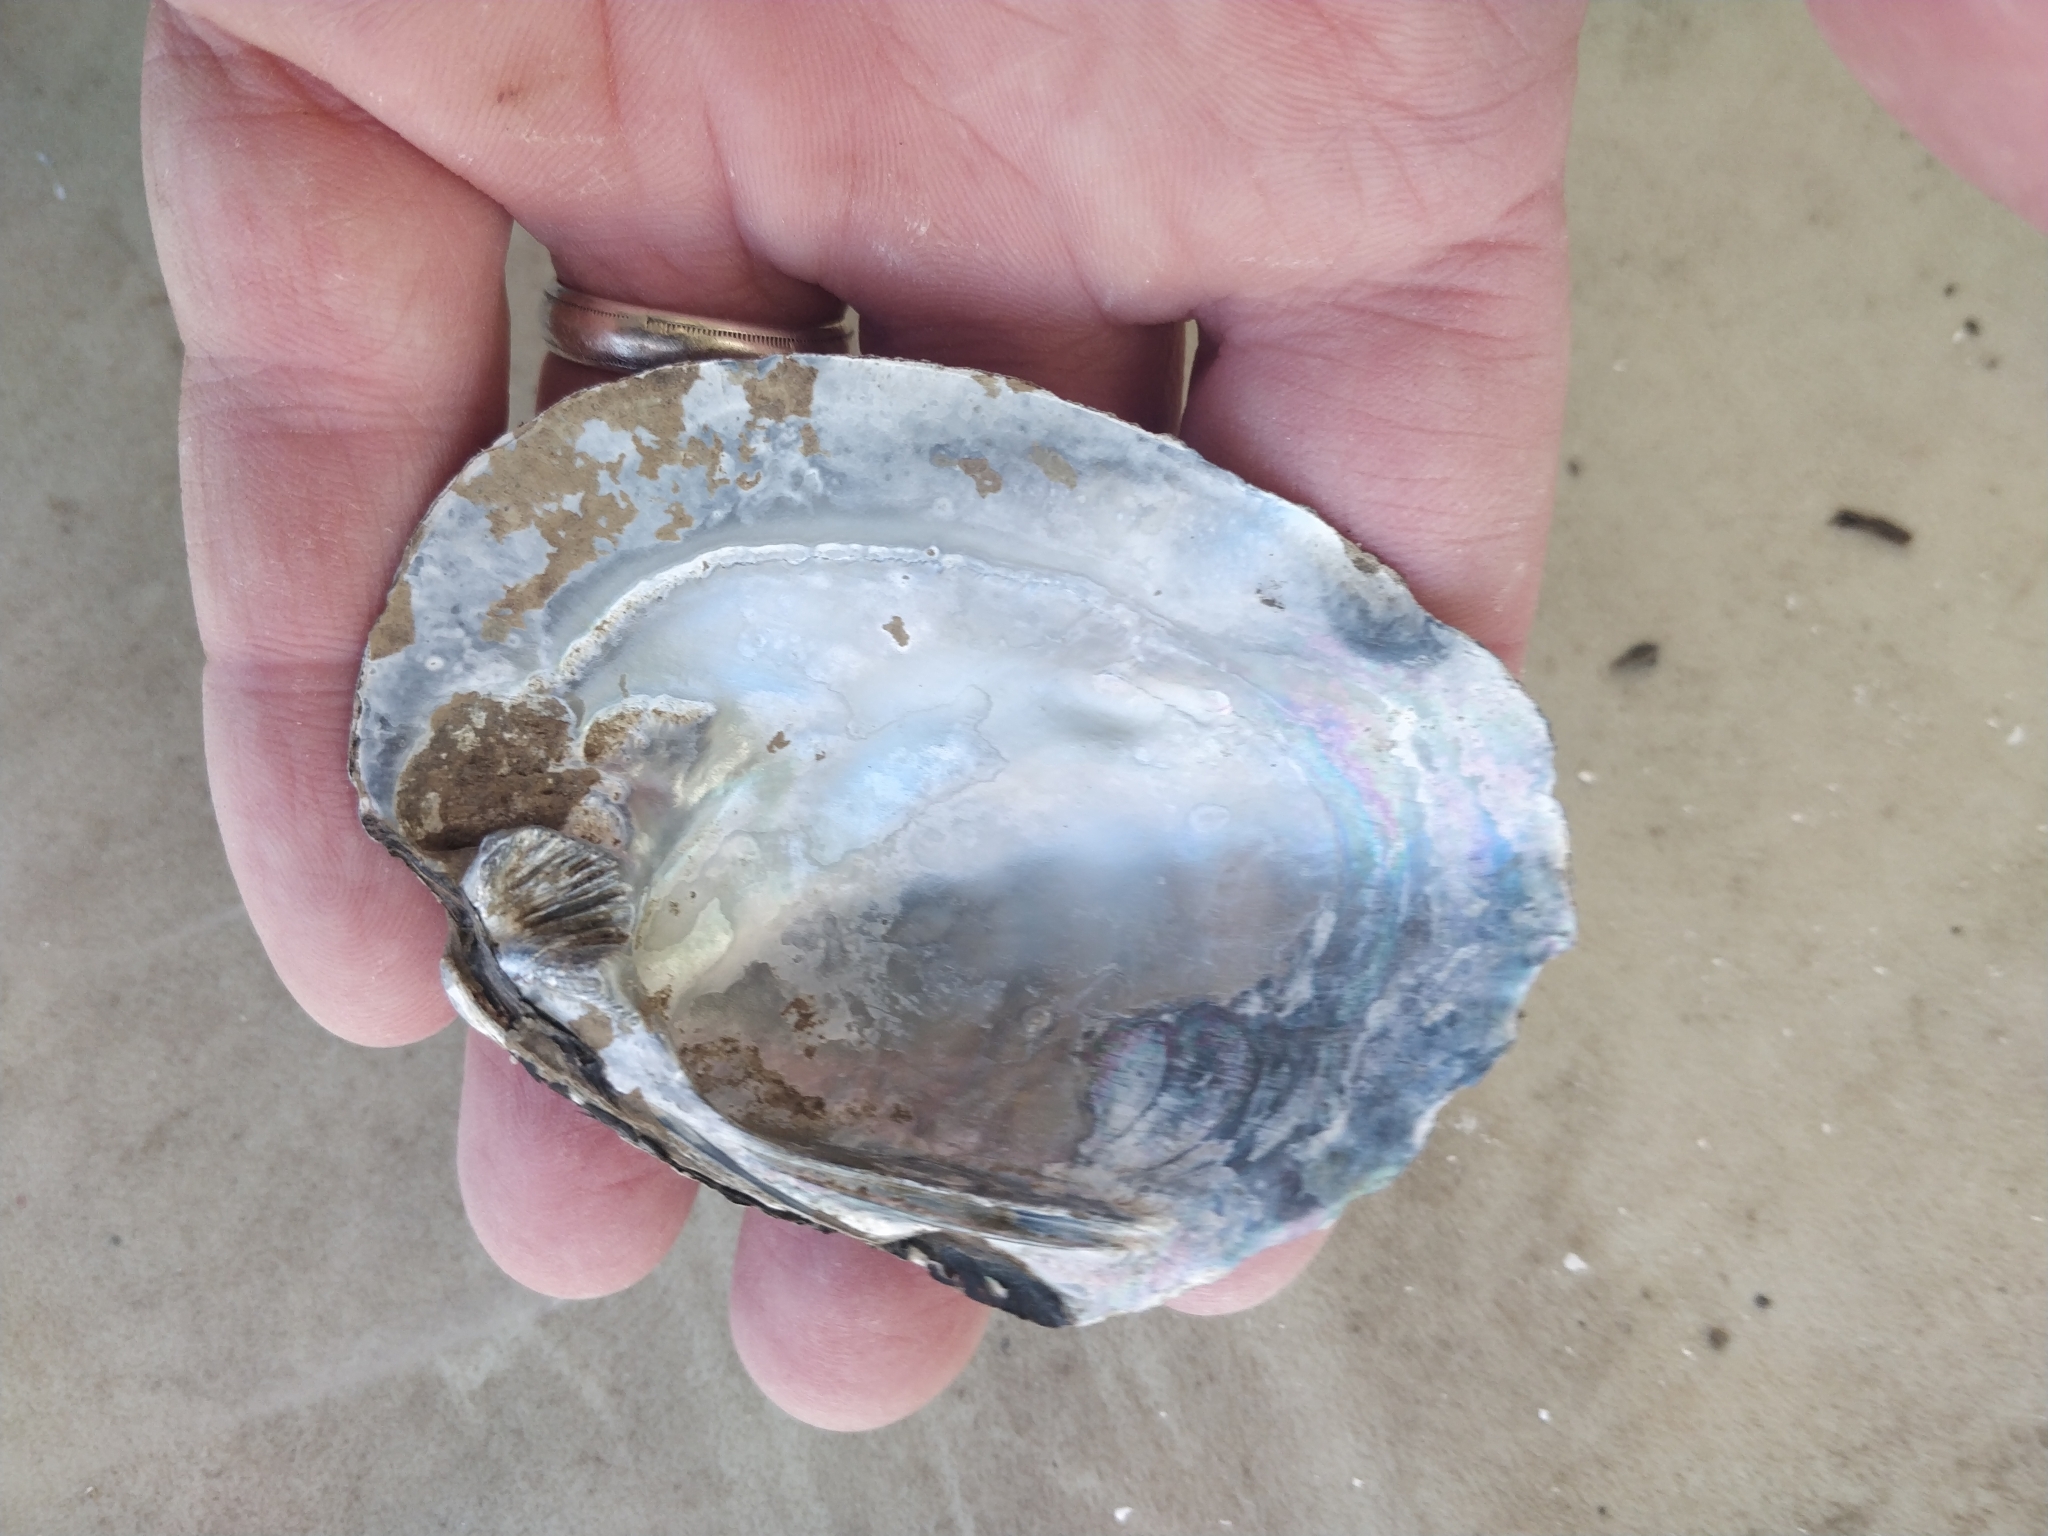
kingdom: Animalia
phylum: Mollusca
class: Bivalvia
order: Unionida
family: Unionidae
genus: Amblema
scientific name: Amblema plicata
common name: Threeridge
